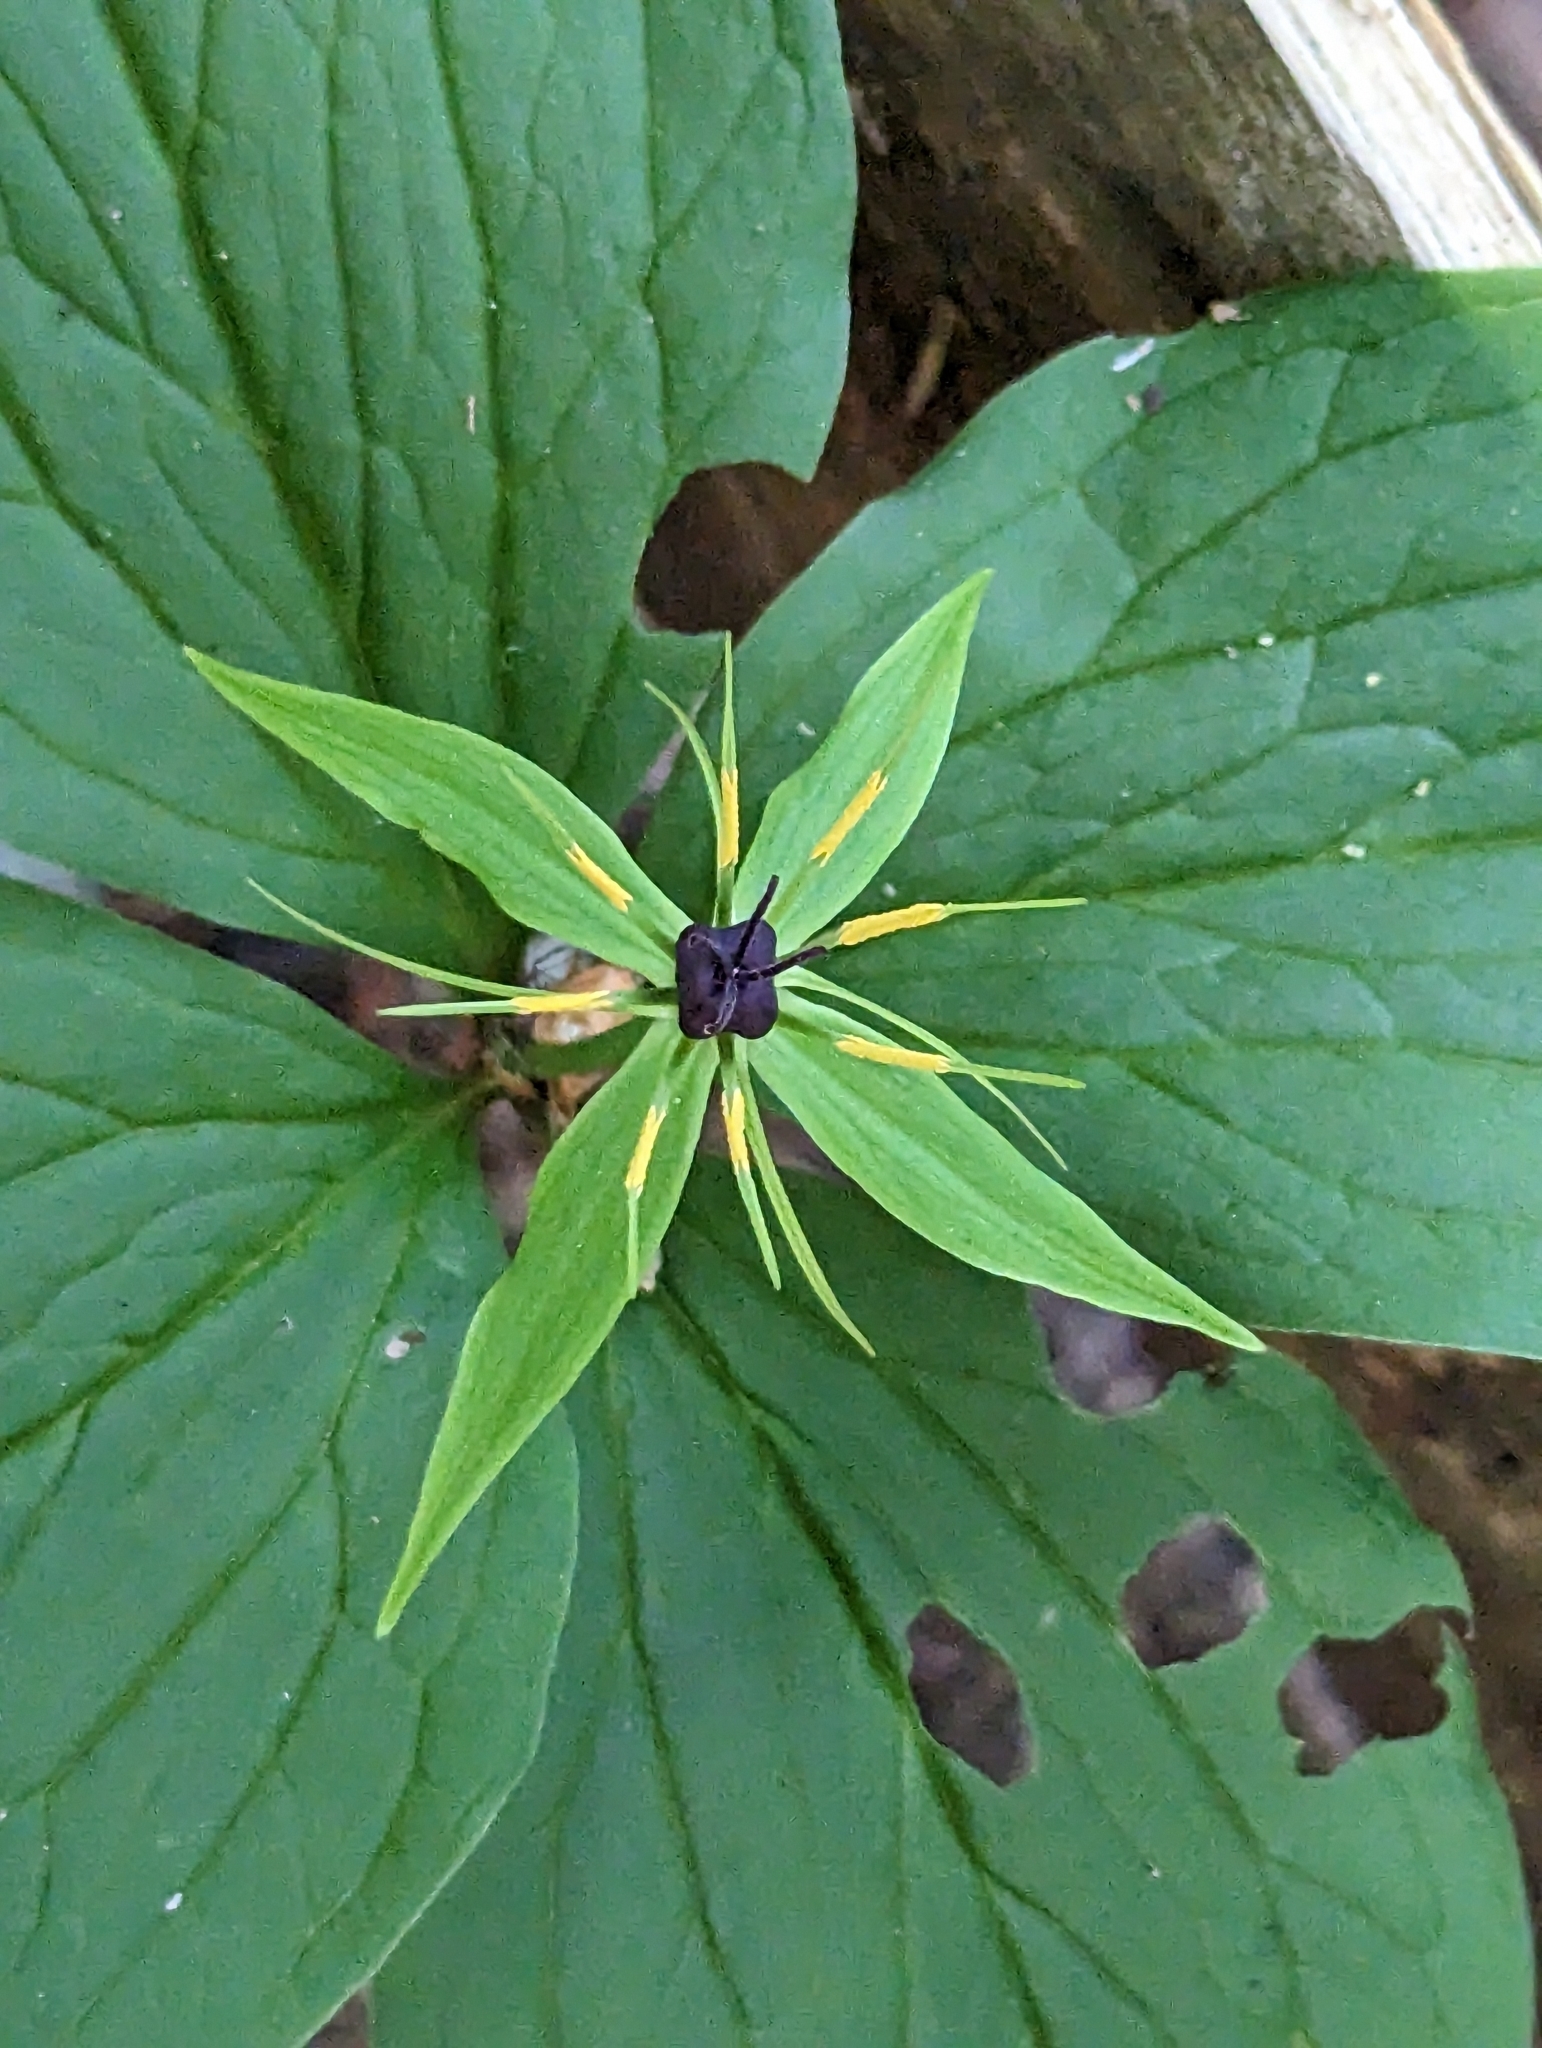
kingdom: Plantae
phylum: Tracheophyta
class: Liliopsida
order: Liliales
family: Melanthiaceae
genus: Paris
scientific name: Paris quadrifolia
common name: Herb-paris
